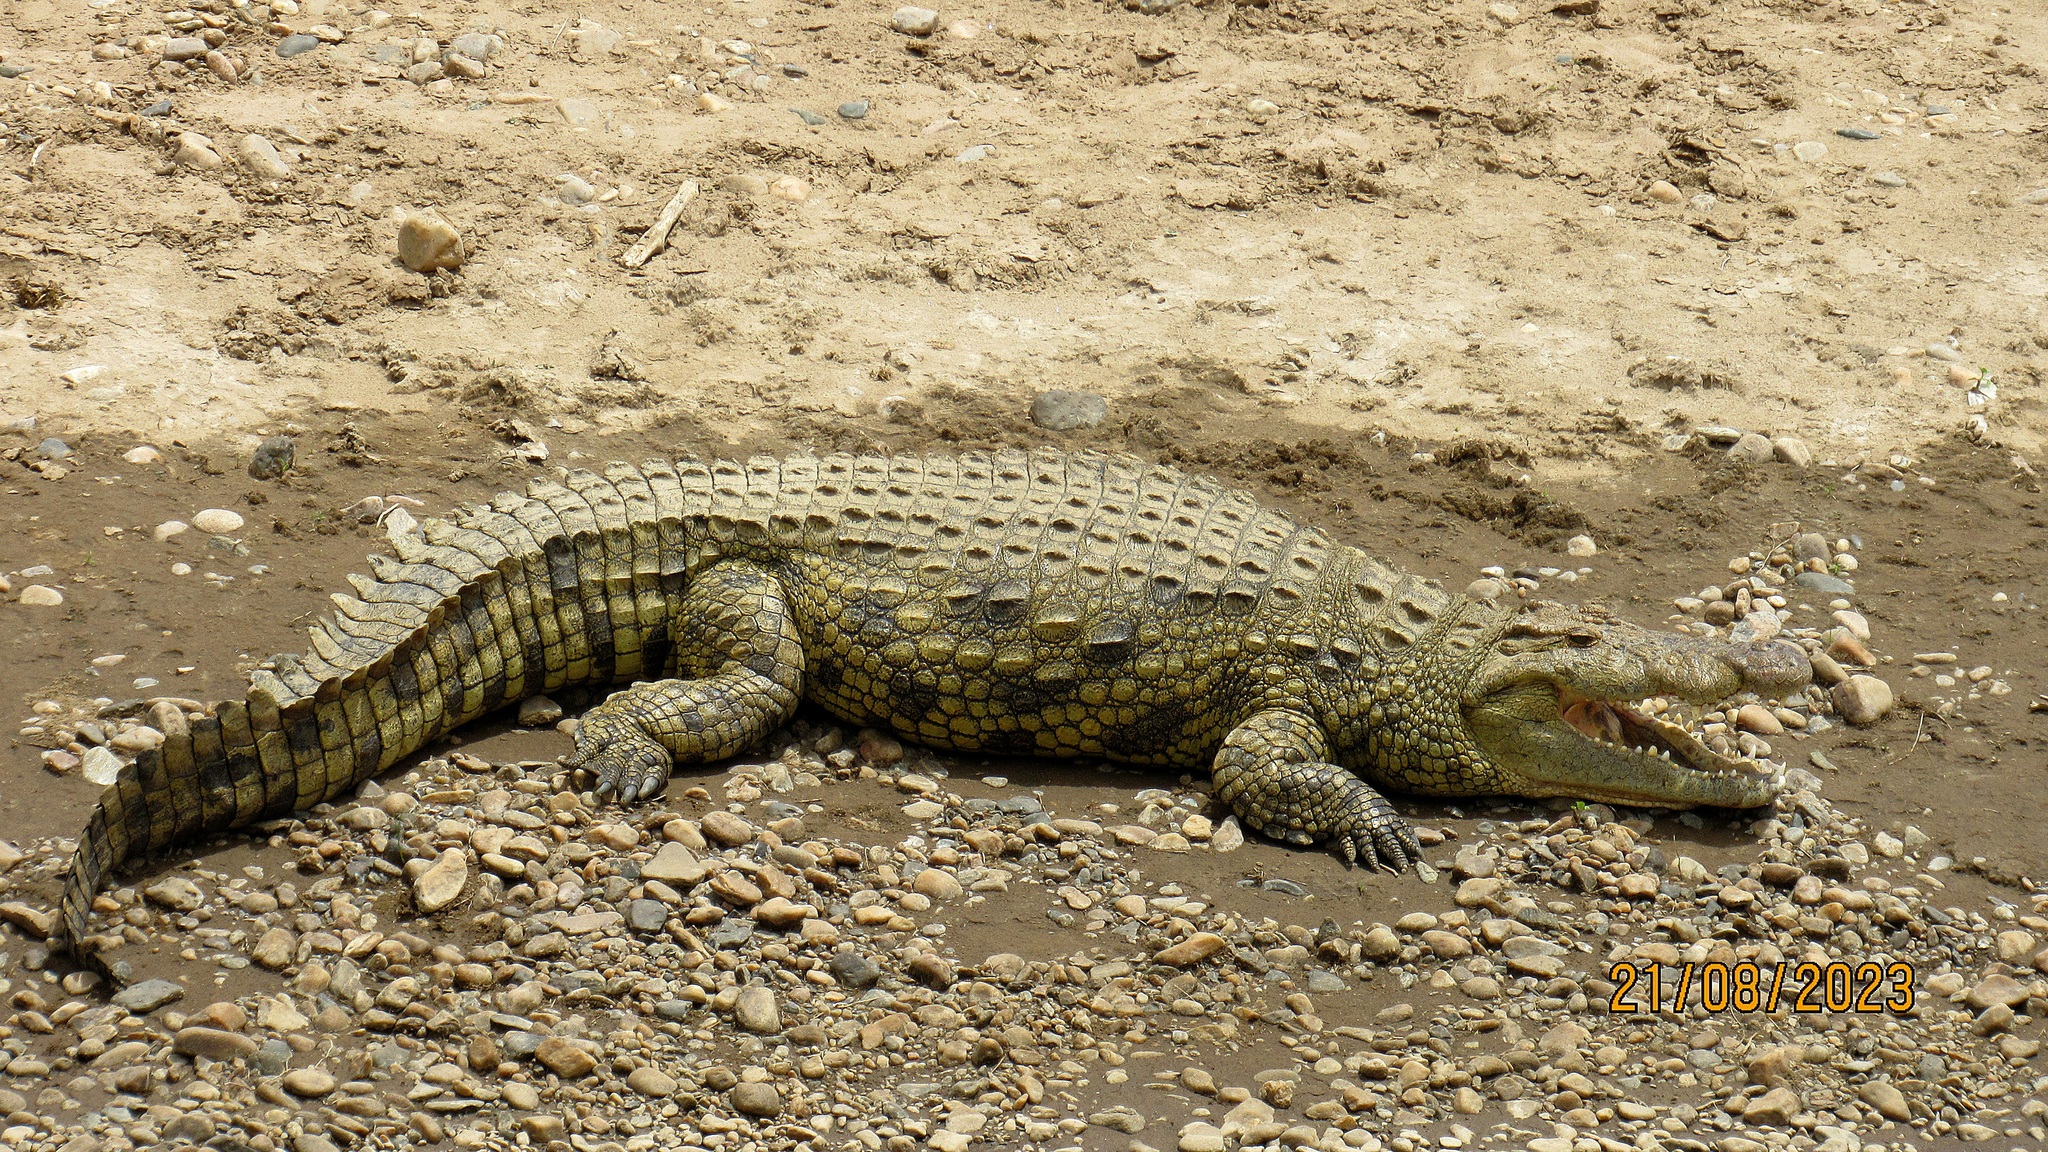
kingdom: Animalia
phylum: Chordata
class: Crocodylia
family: Crocodylidae
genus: Crocodylus
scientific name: Crocodylus niloticus
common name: Nile crocodile
